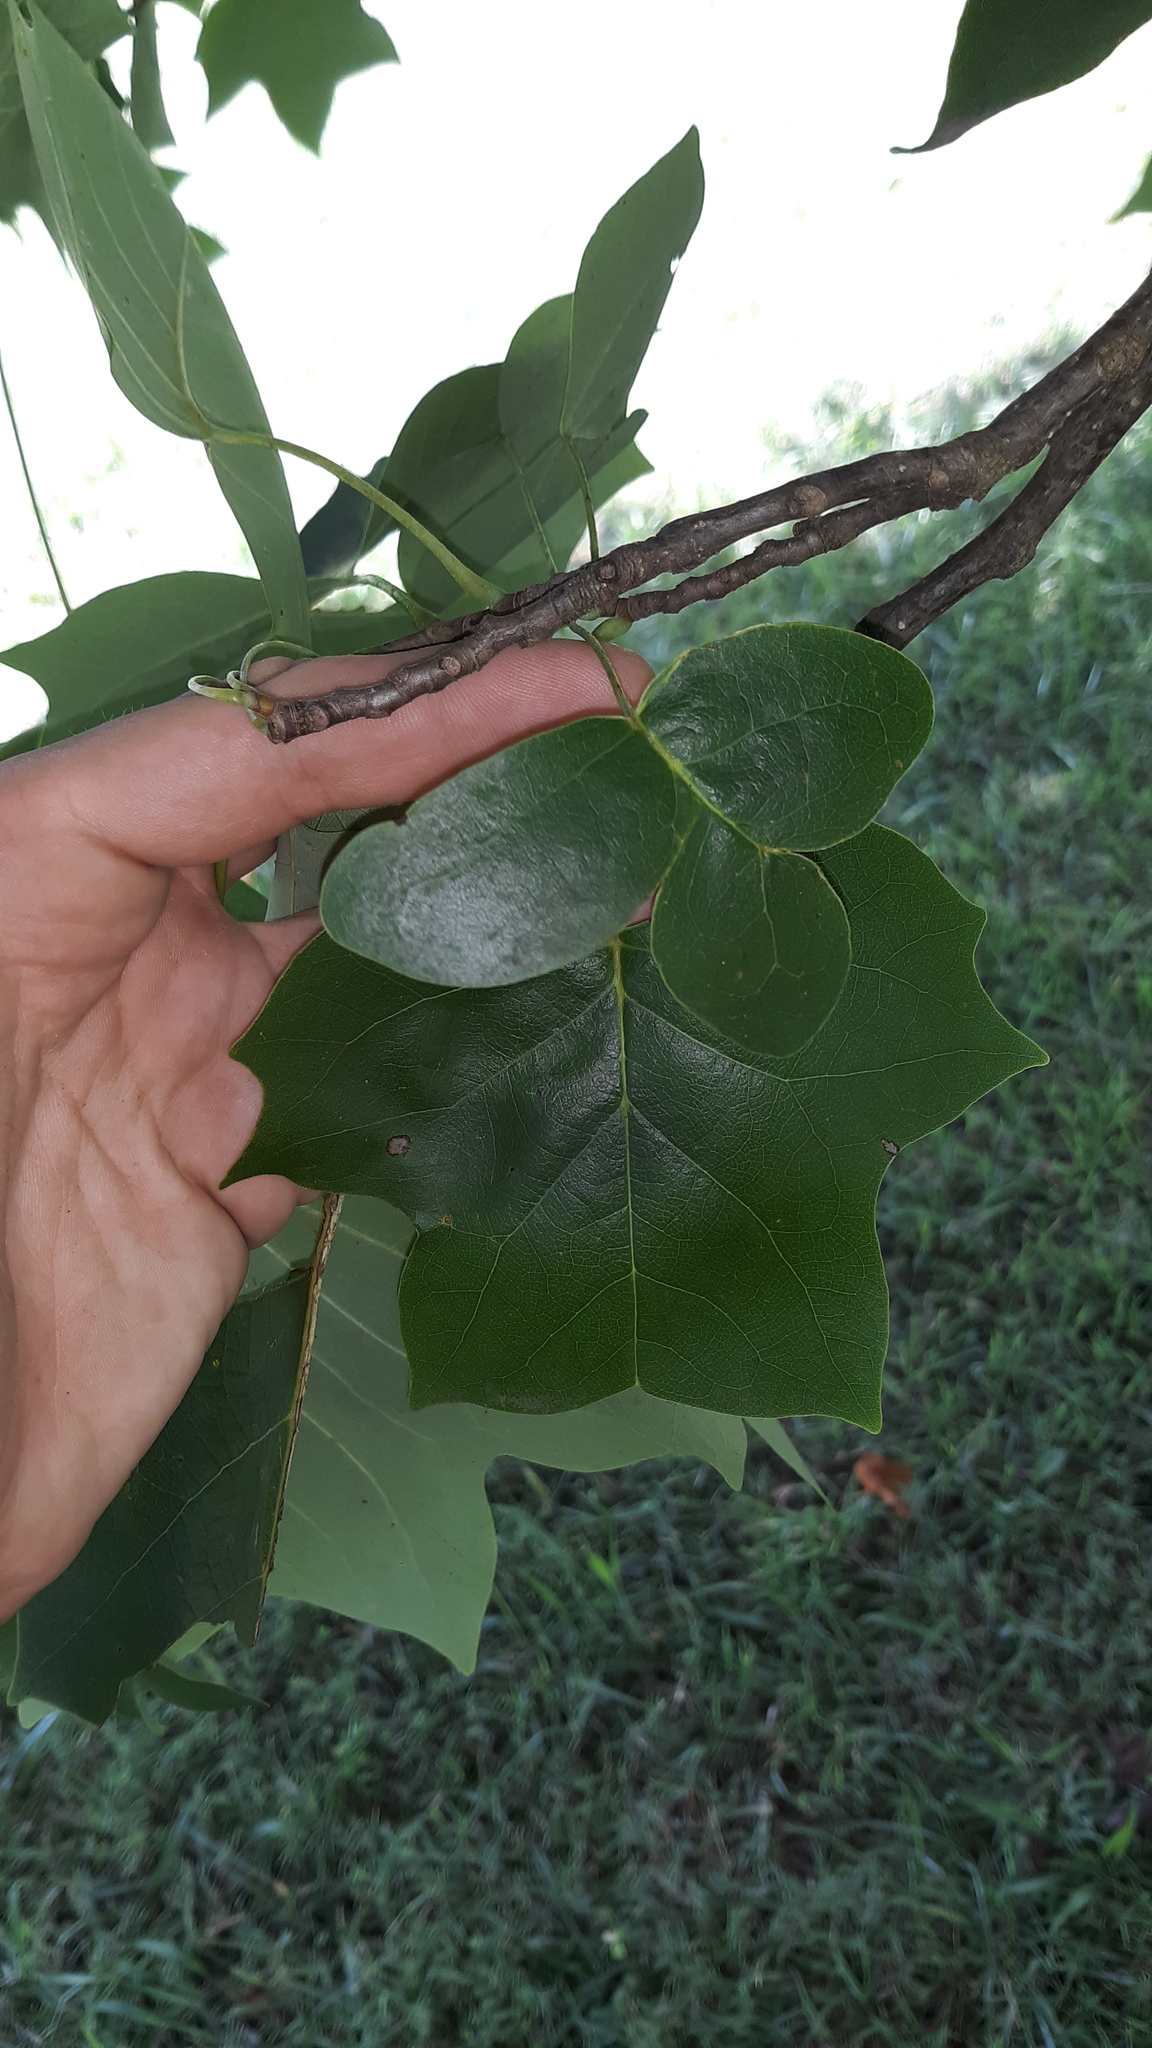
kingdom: Plantae
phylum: Tracheophyta
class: Magnoliopsida
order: Magnoliales
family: Magnoliaceae
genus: Liriodendron
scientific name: Liriodendron tulipifera
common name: Tulip tree
